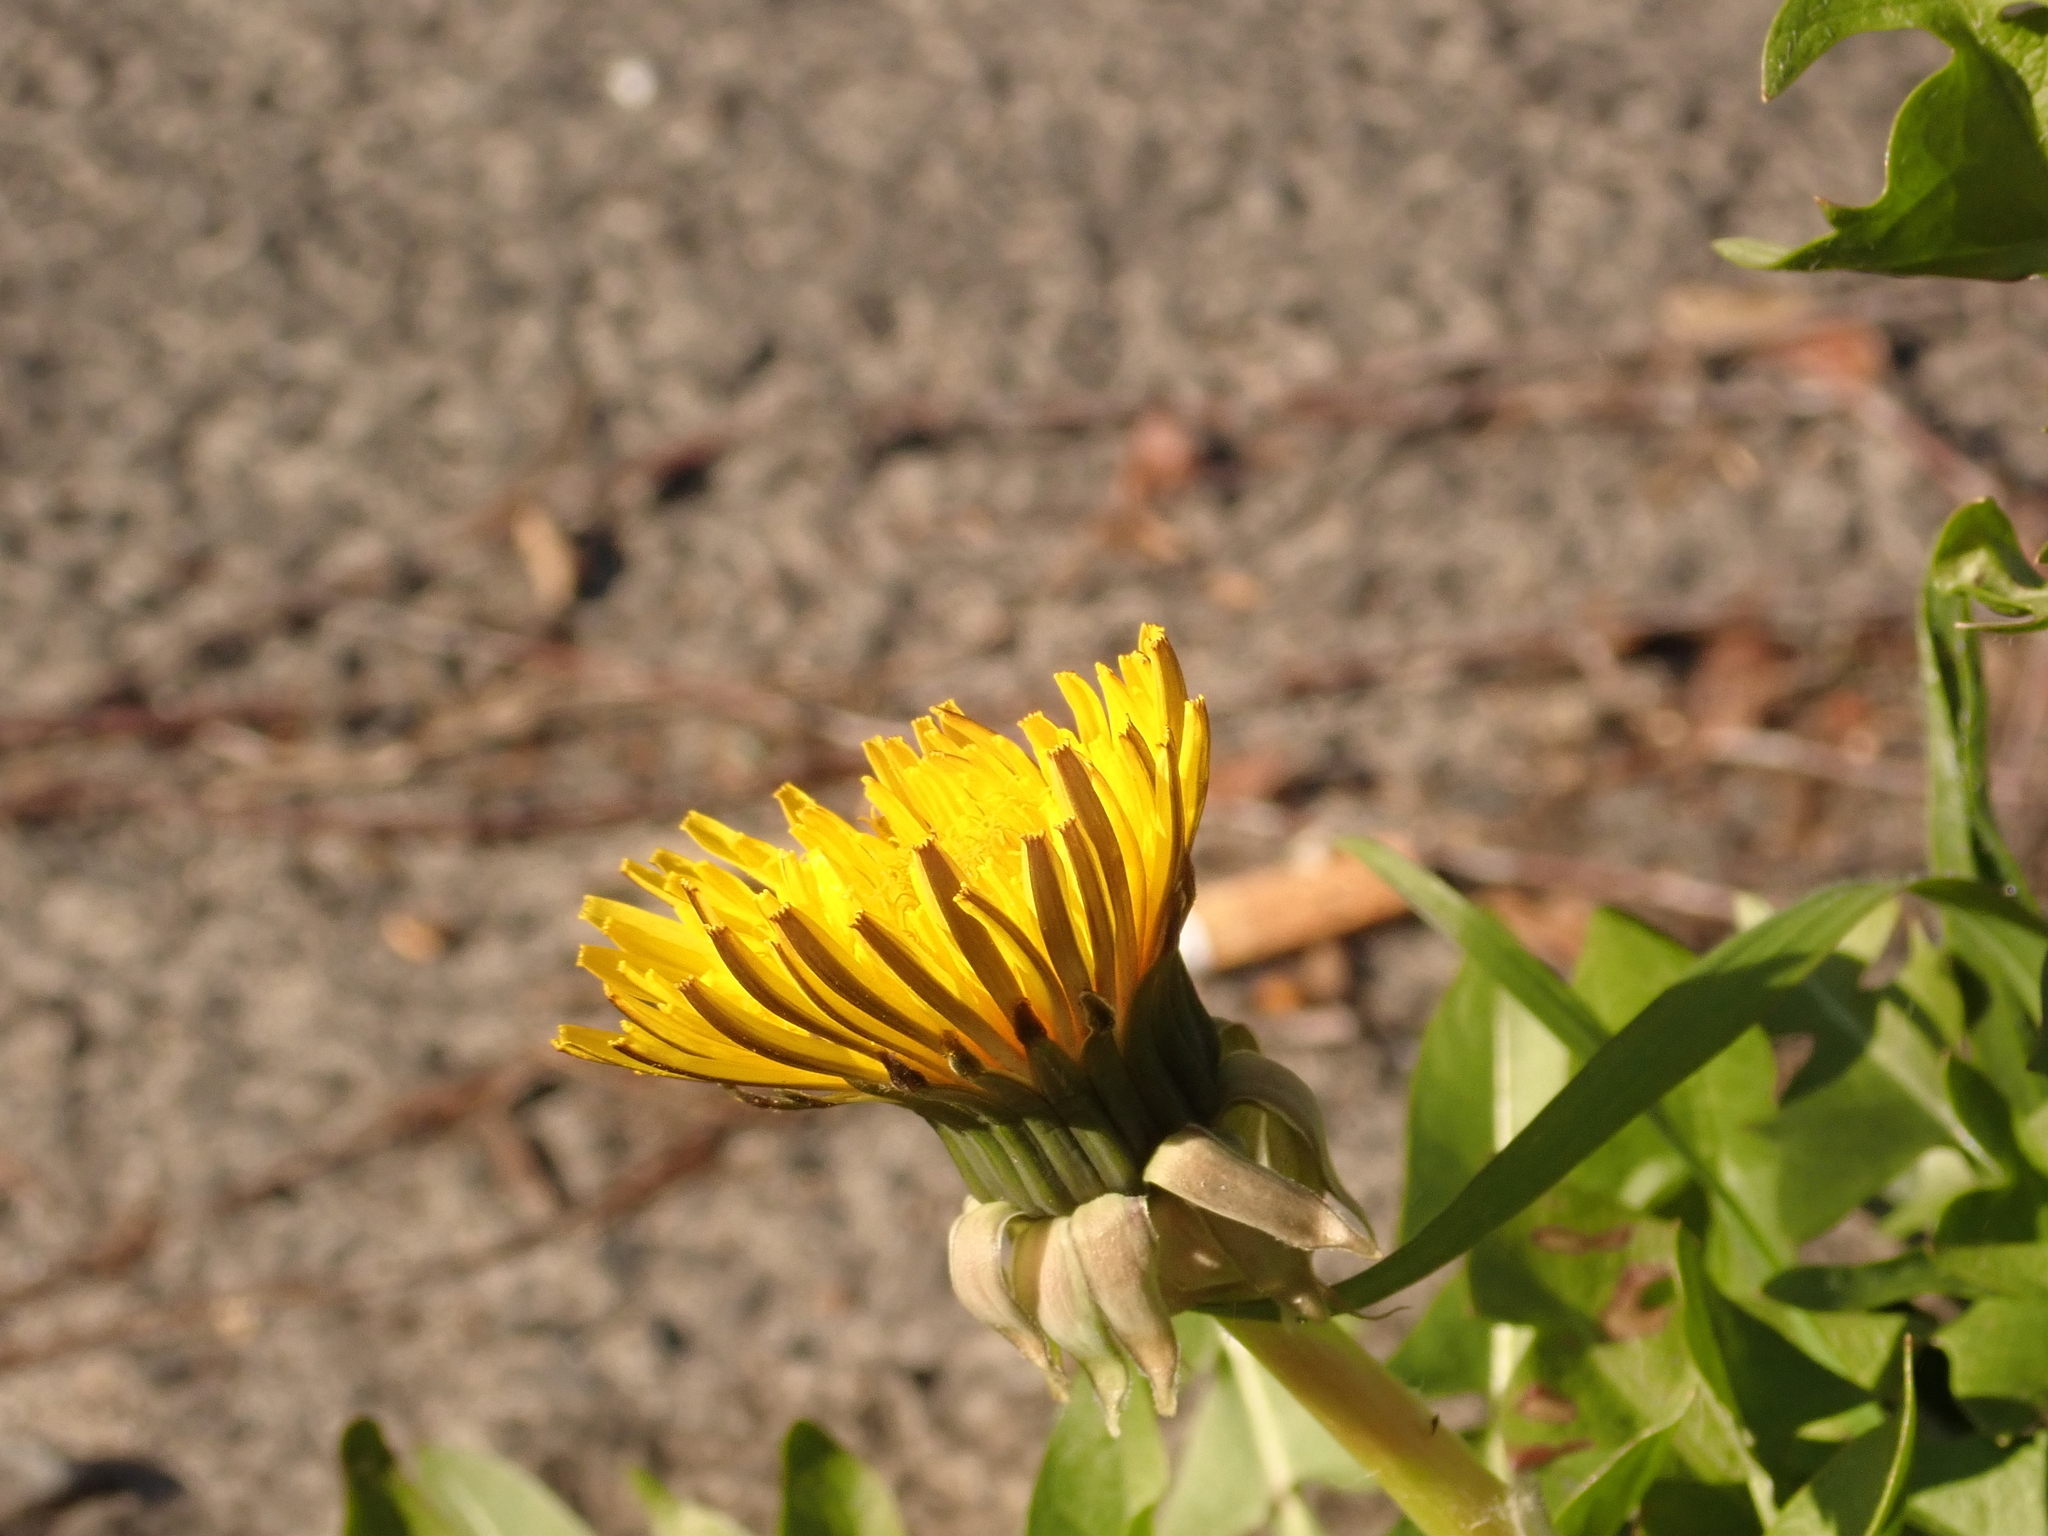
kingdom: Plantae
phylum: Tracheophyta
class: Magnoliopsida
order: Asterales
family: Asteraceae
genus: Taraxacum
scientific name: Taraxacum officinale
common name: Common dandelion
